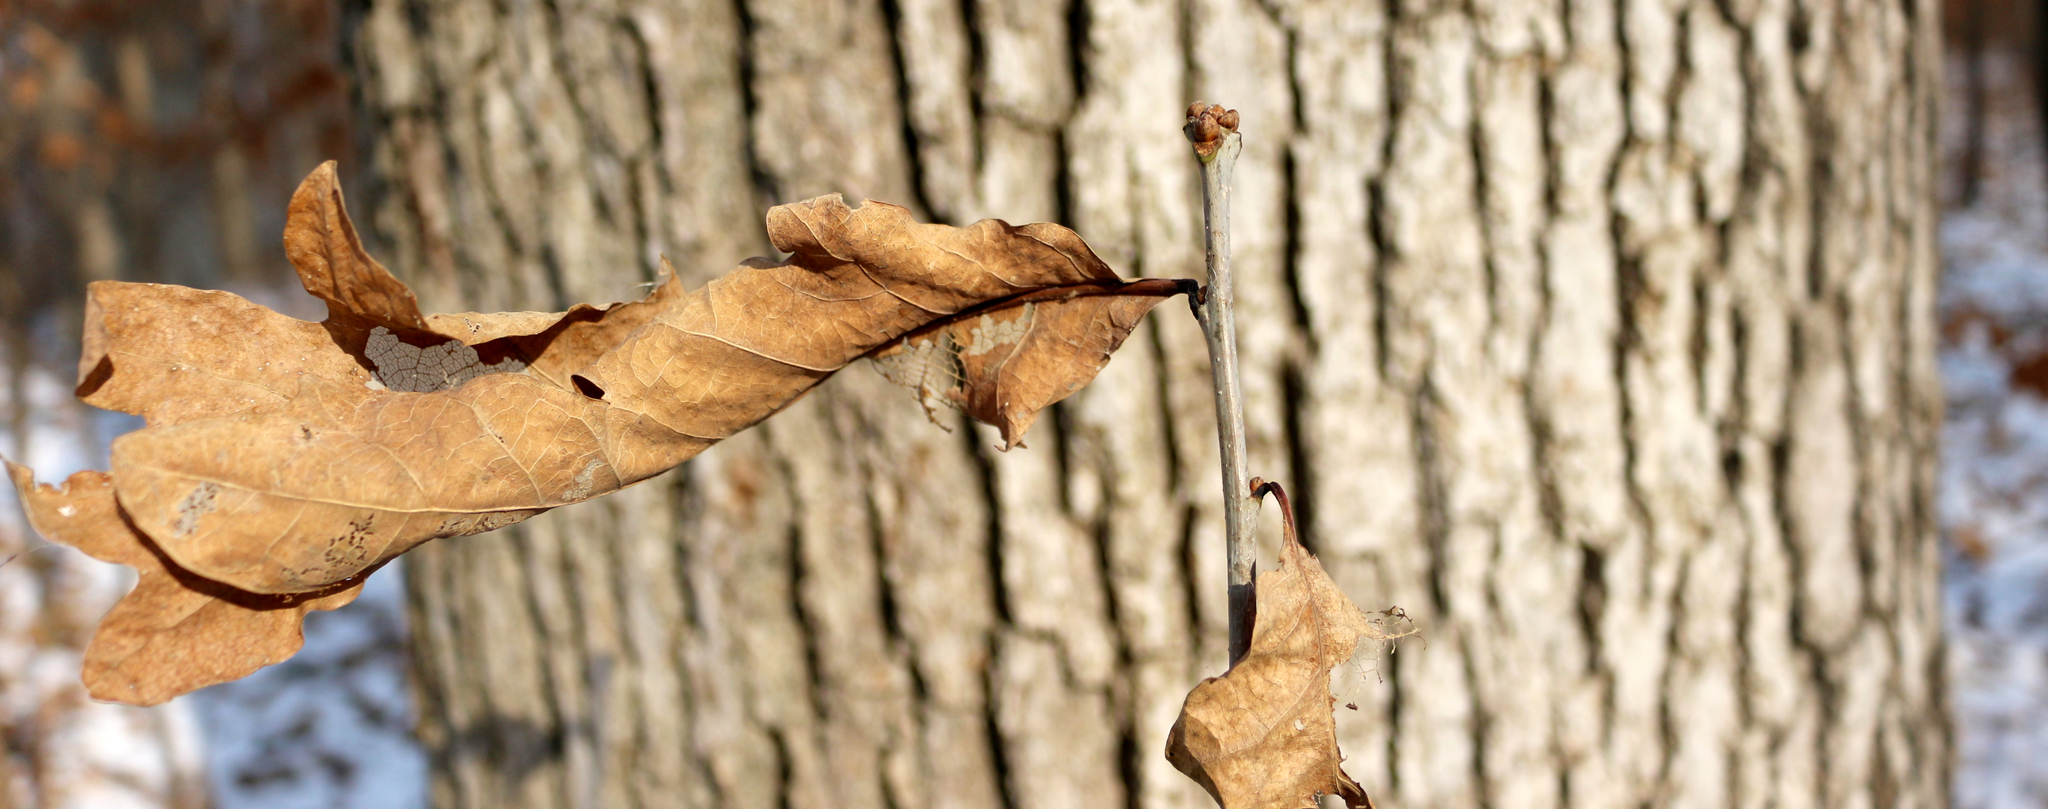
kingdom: Plantae
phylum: Tracheophyta
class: Magnoliopsida
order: Fagales
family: Fagaceae
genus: Quercus
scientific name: Quercus alba
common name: White oak
